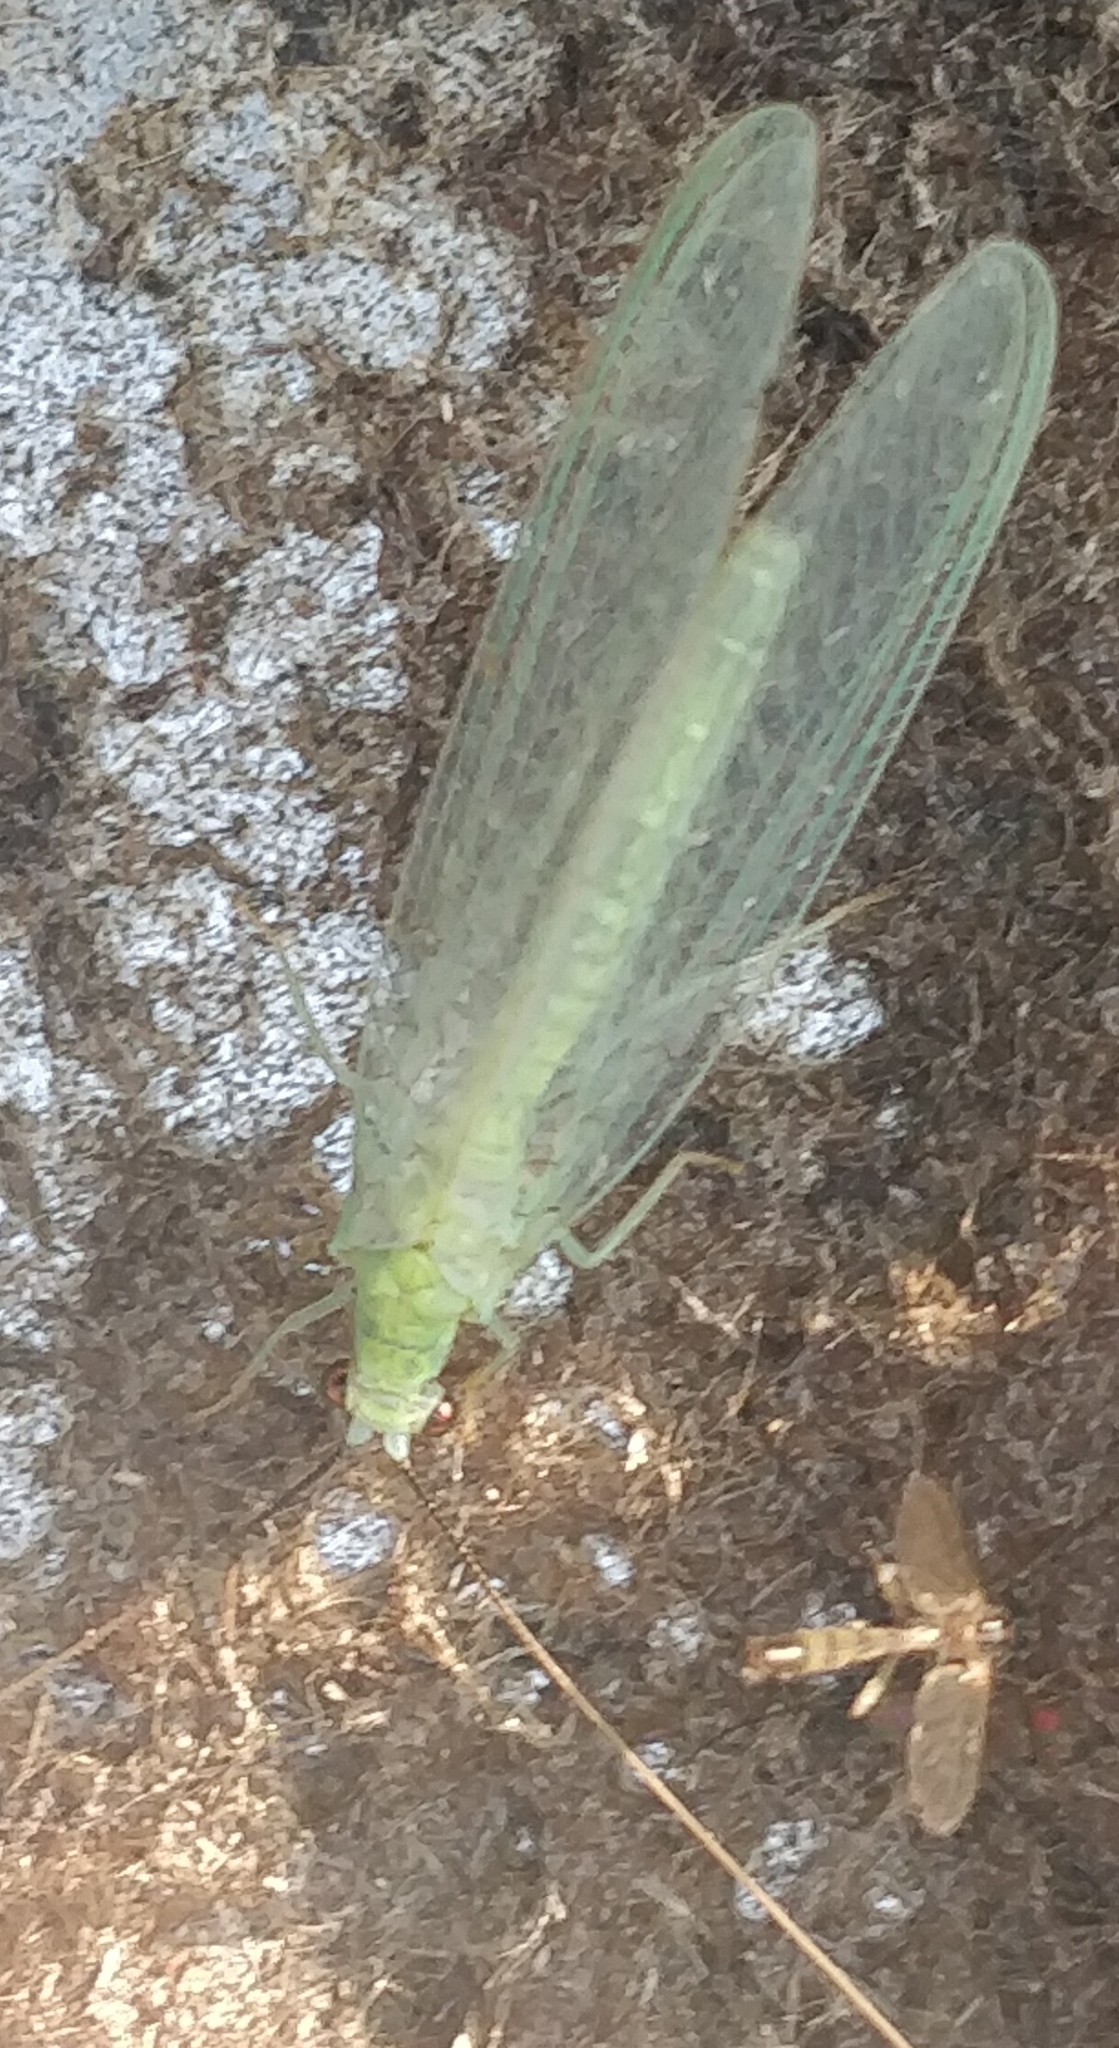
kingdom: Animalia
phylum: Arthropoda
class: Insecta
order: Neuroptera
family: Chrysopidae
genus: Chrysopa
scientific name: Chrysopa nigricornis
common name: Black-horned green lacewing
